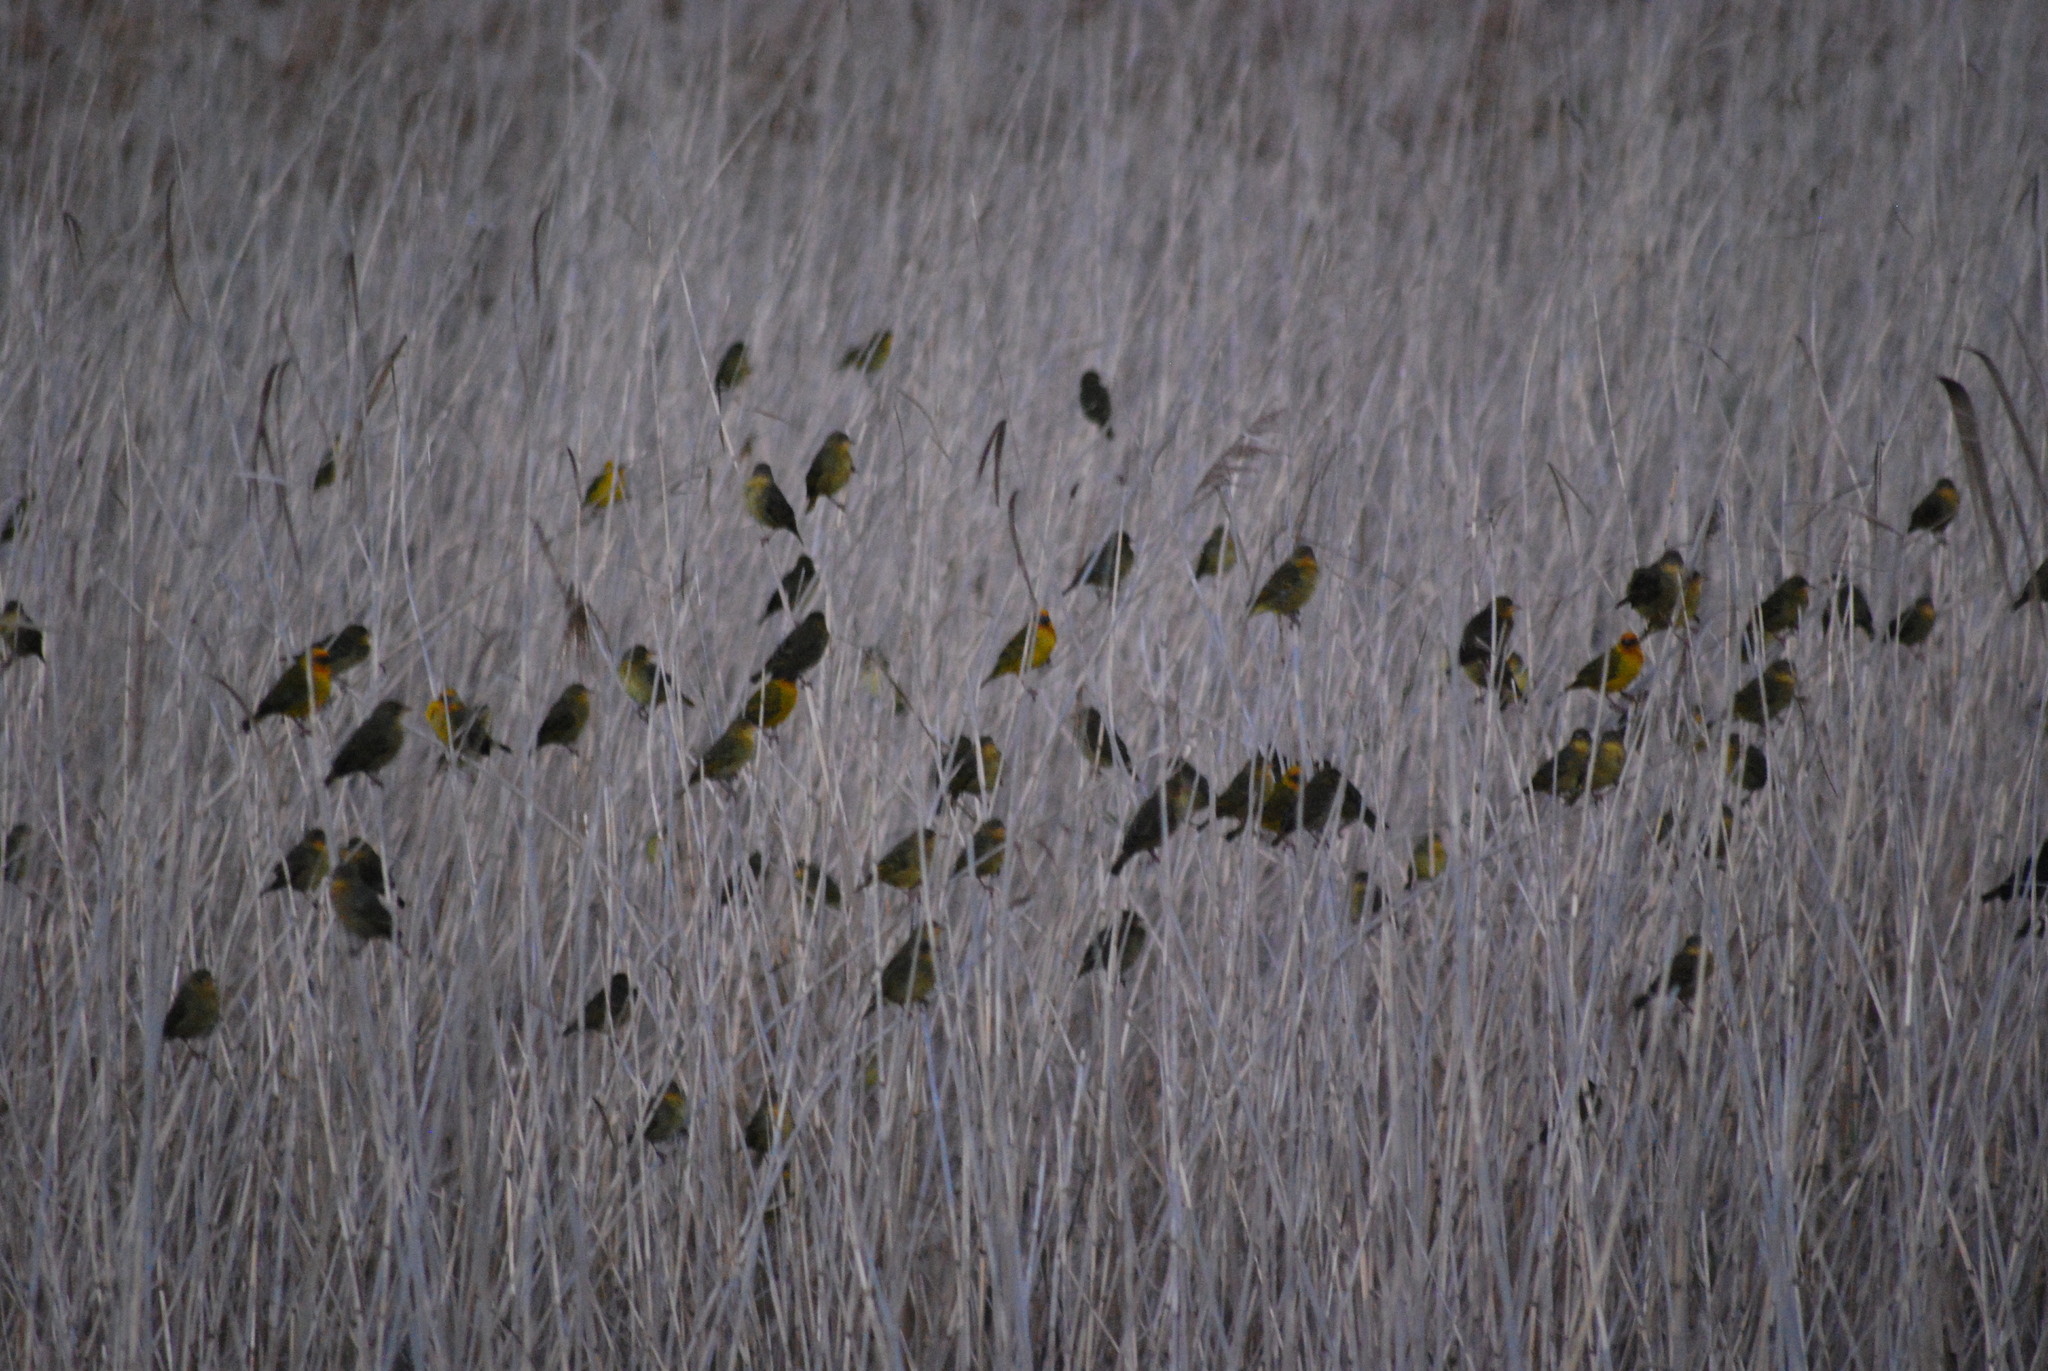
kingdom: Animalia
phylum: Chordata
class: Aves
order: Passeriformes
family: Ploceidae
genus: Ploceus
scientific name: Ploceus capensis
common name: Cape weaver
